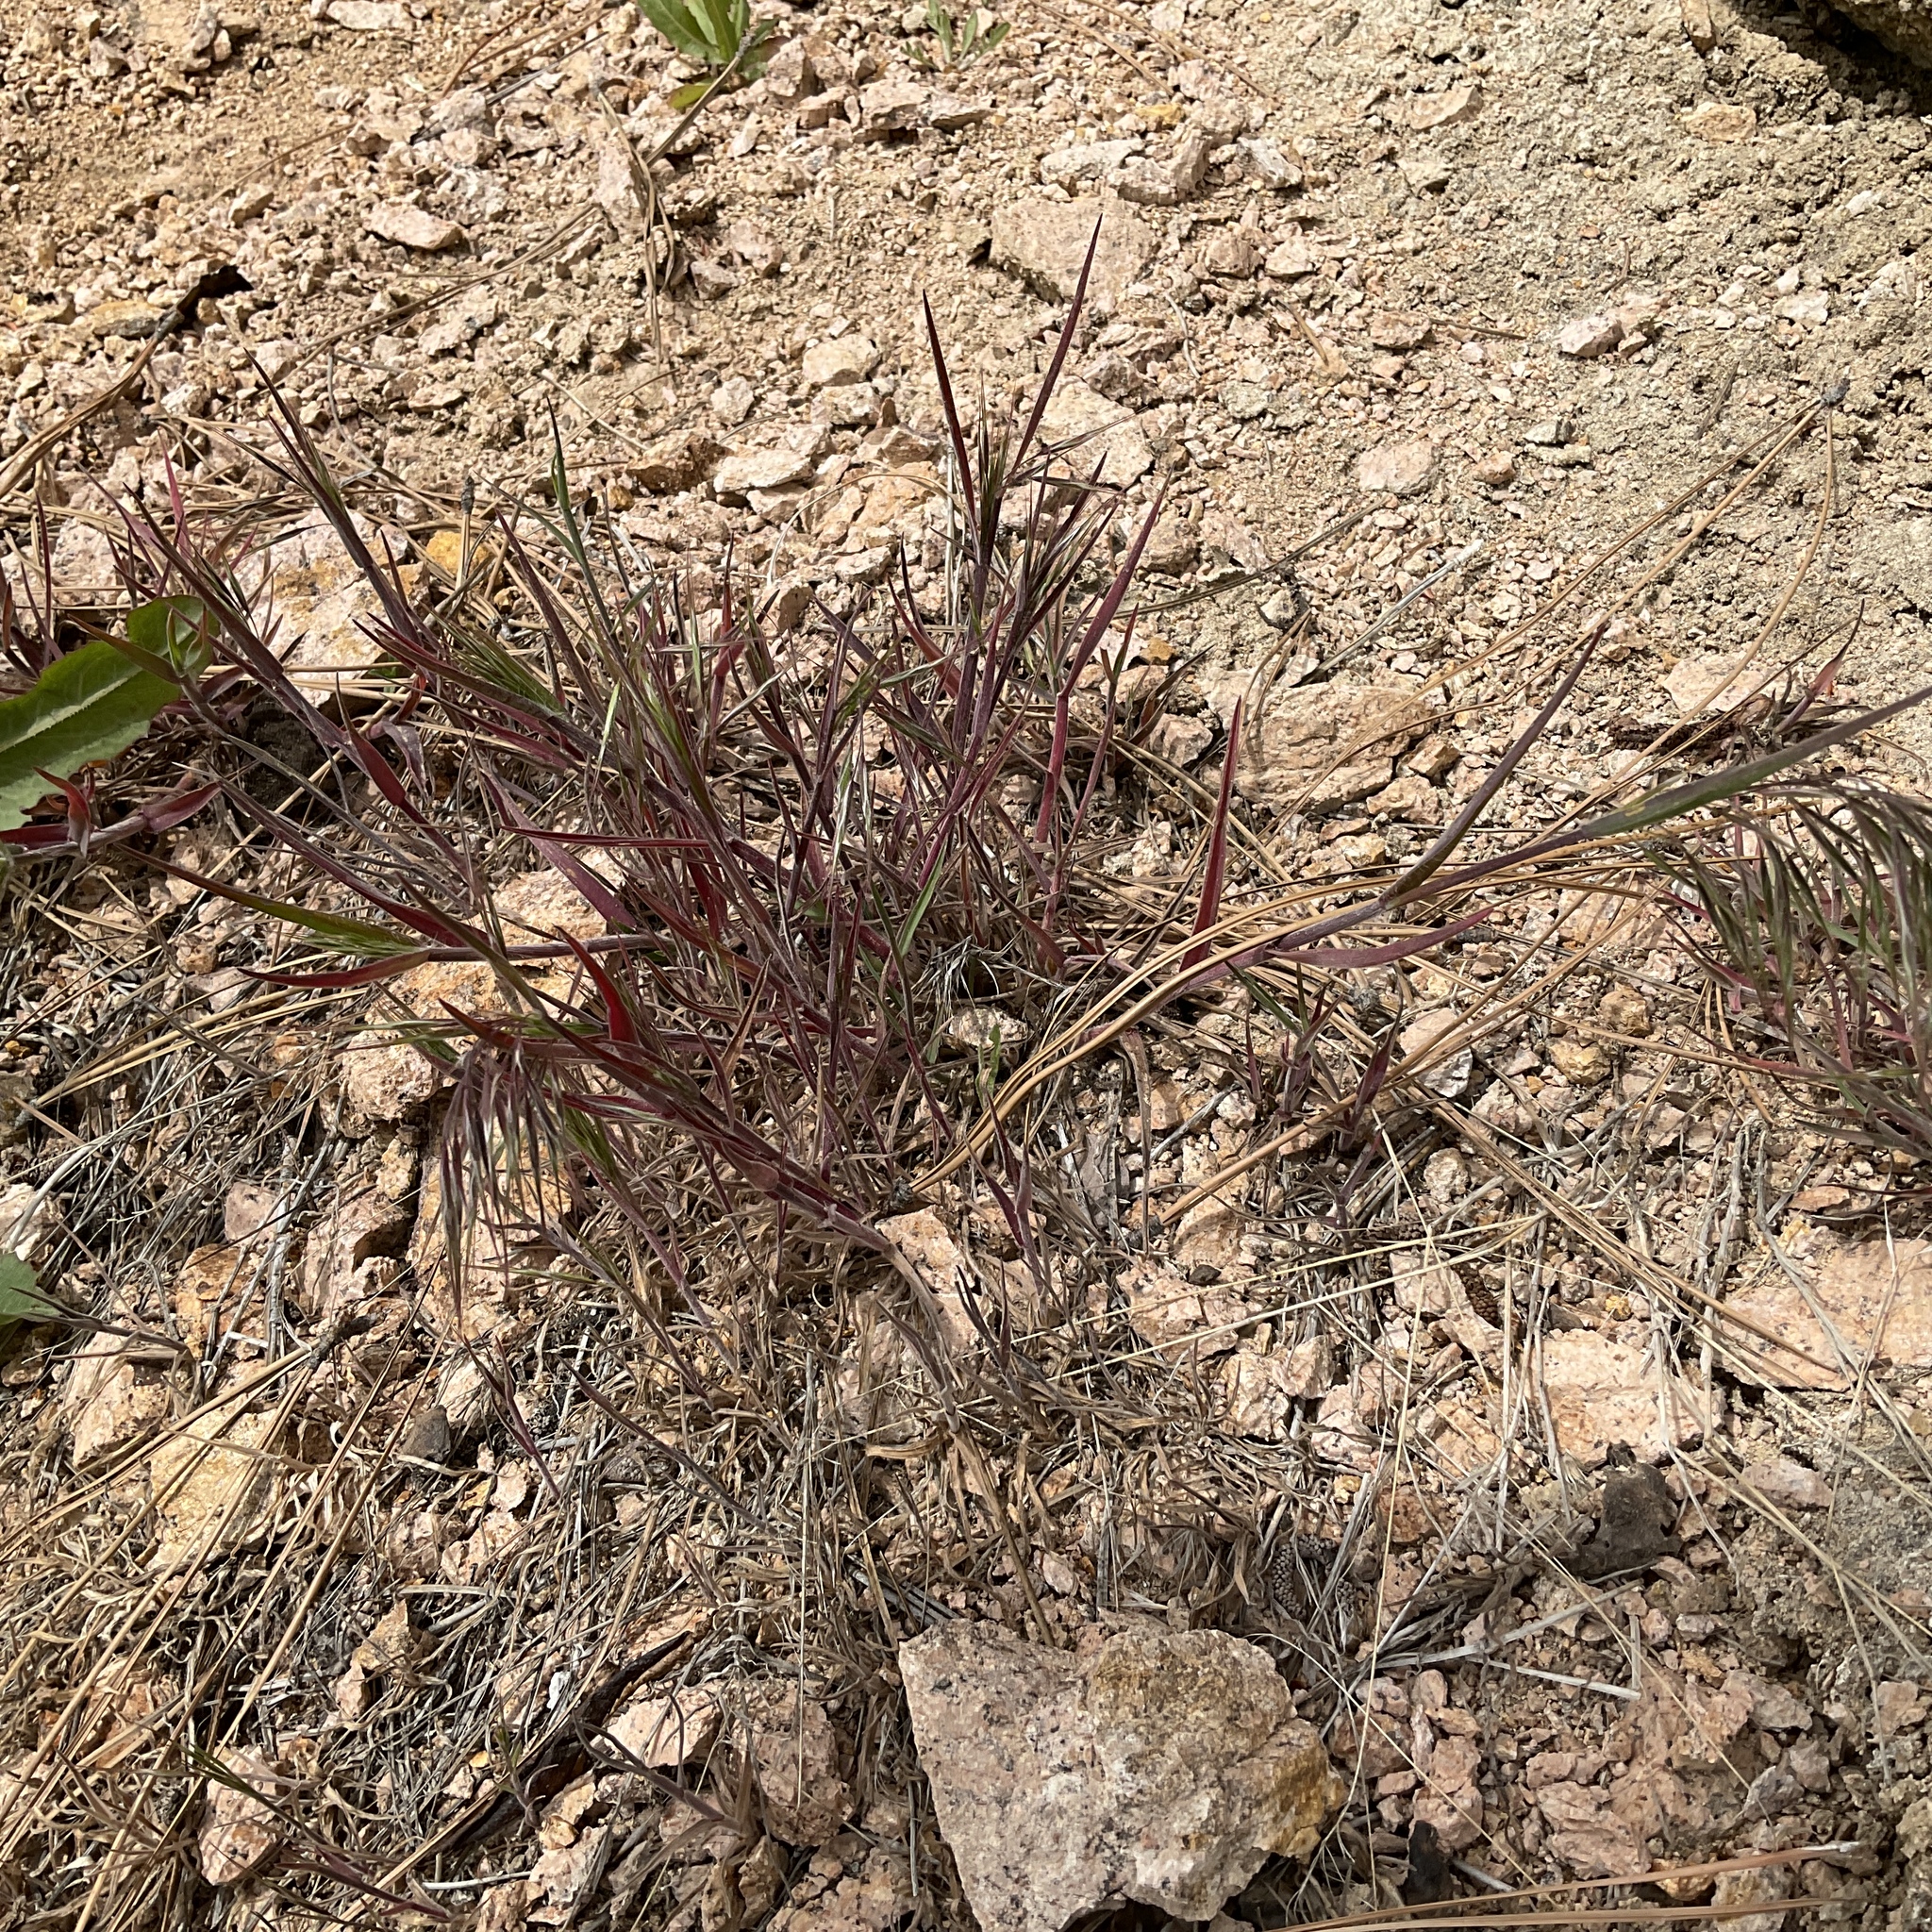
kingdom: Plantae
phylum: Tracheophyta
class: Liliopsida
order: Poales
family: Poaceae
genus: Bromus
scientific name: Bromus tectorum
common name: Cheatgrass
